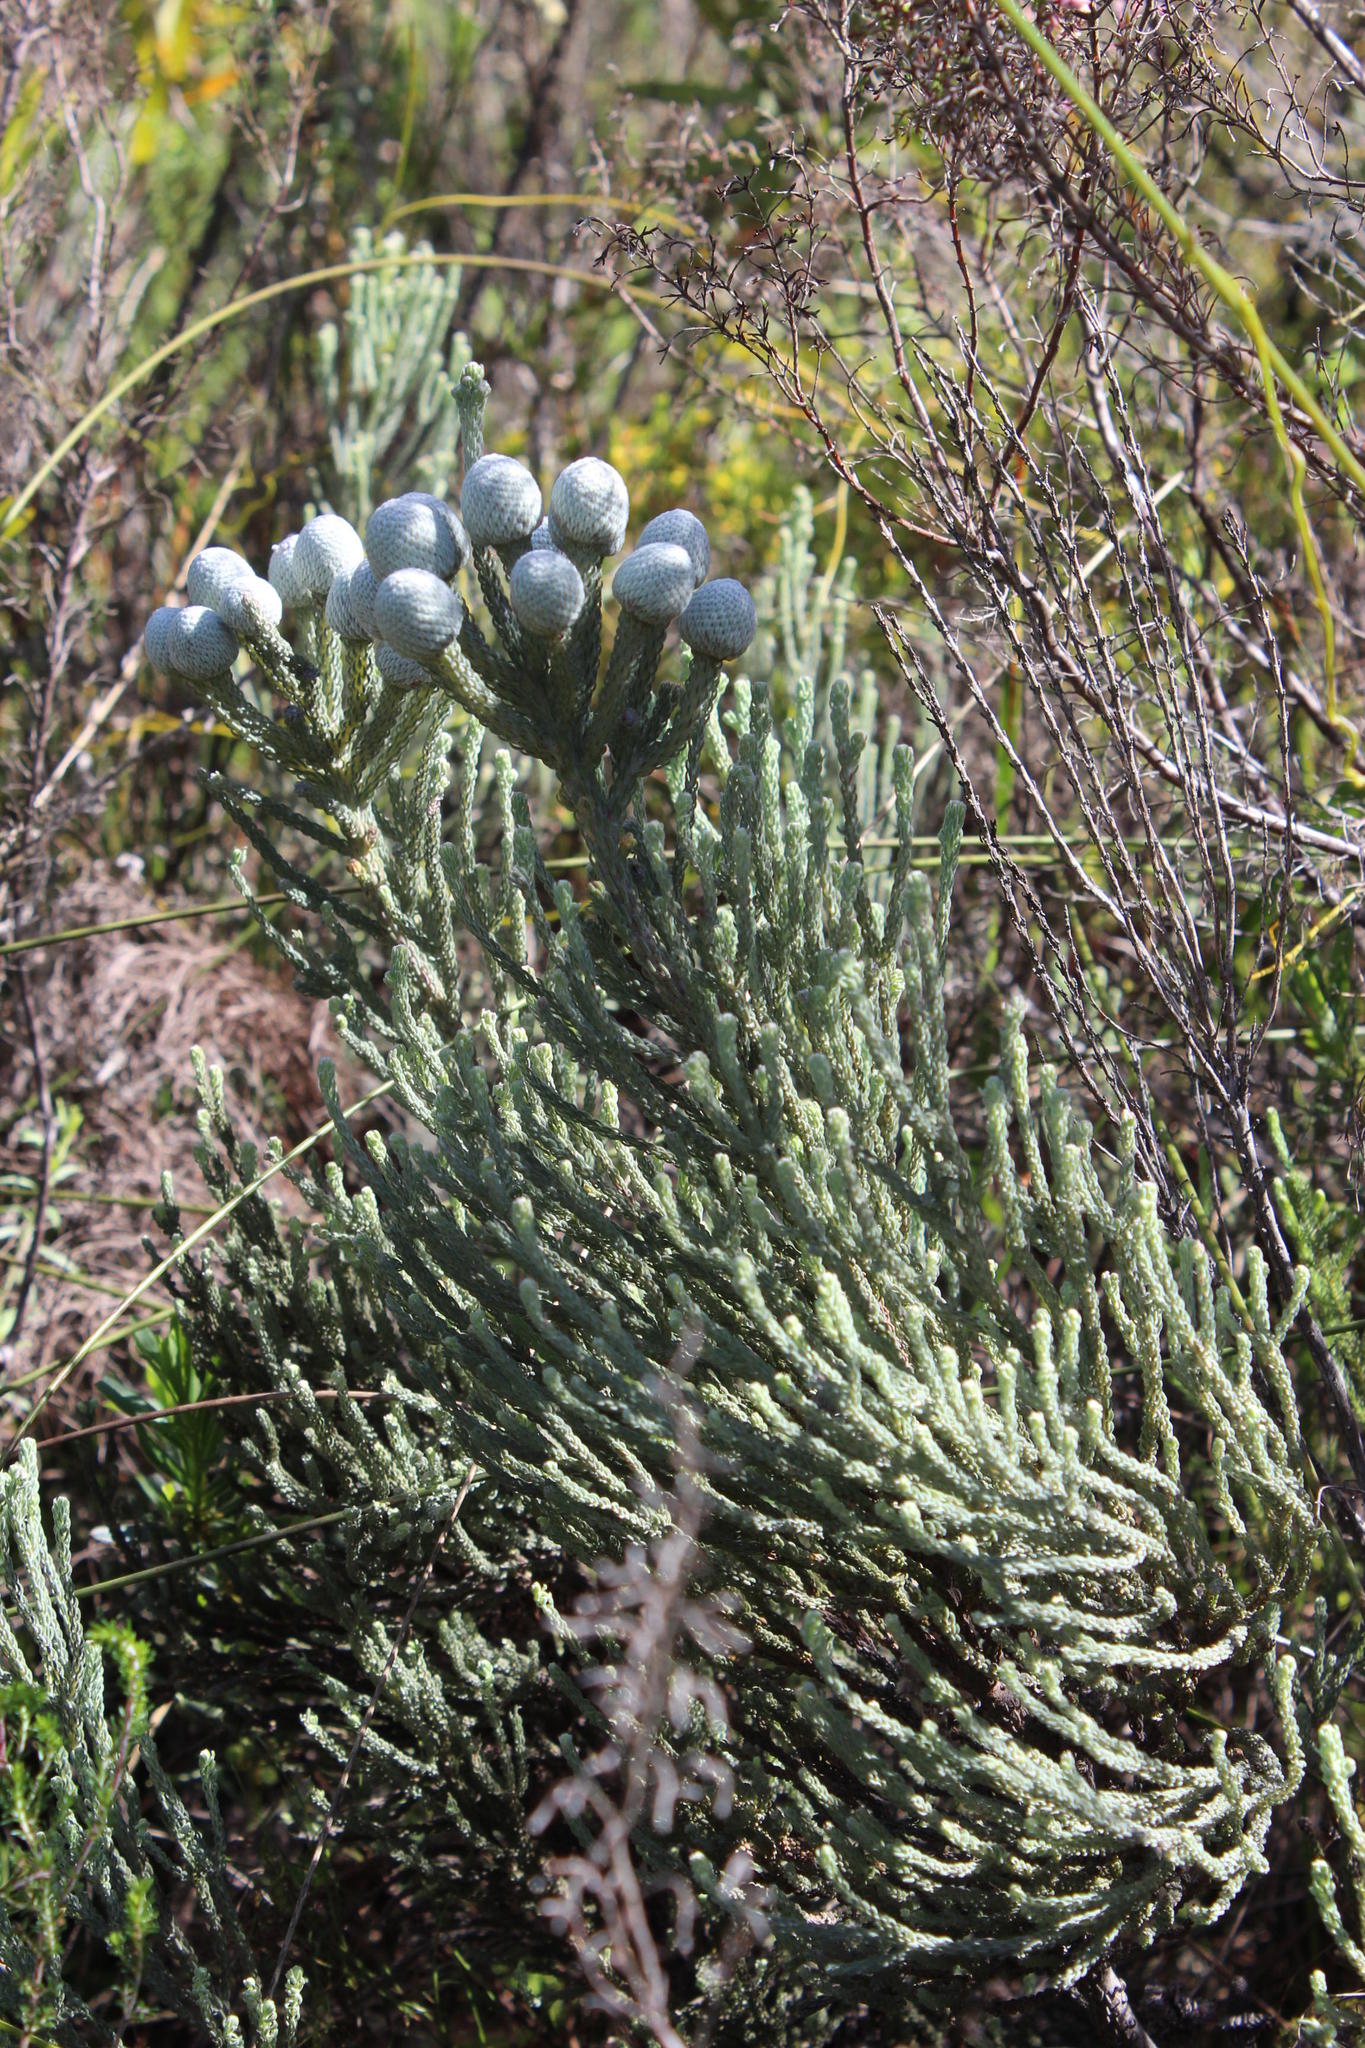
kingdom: Plantae
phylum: Tracheophyta
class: Magnoliopsida
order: Bruniales
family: Bruniaceae
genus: Brunia
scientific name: Brunia laevis
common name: Silver brunia
